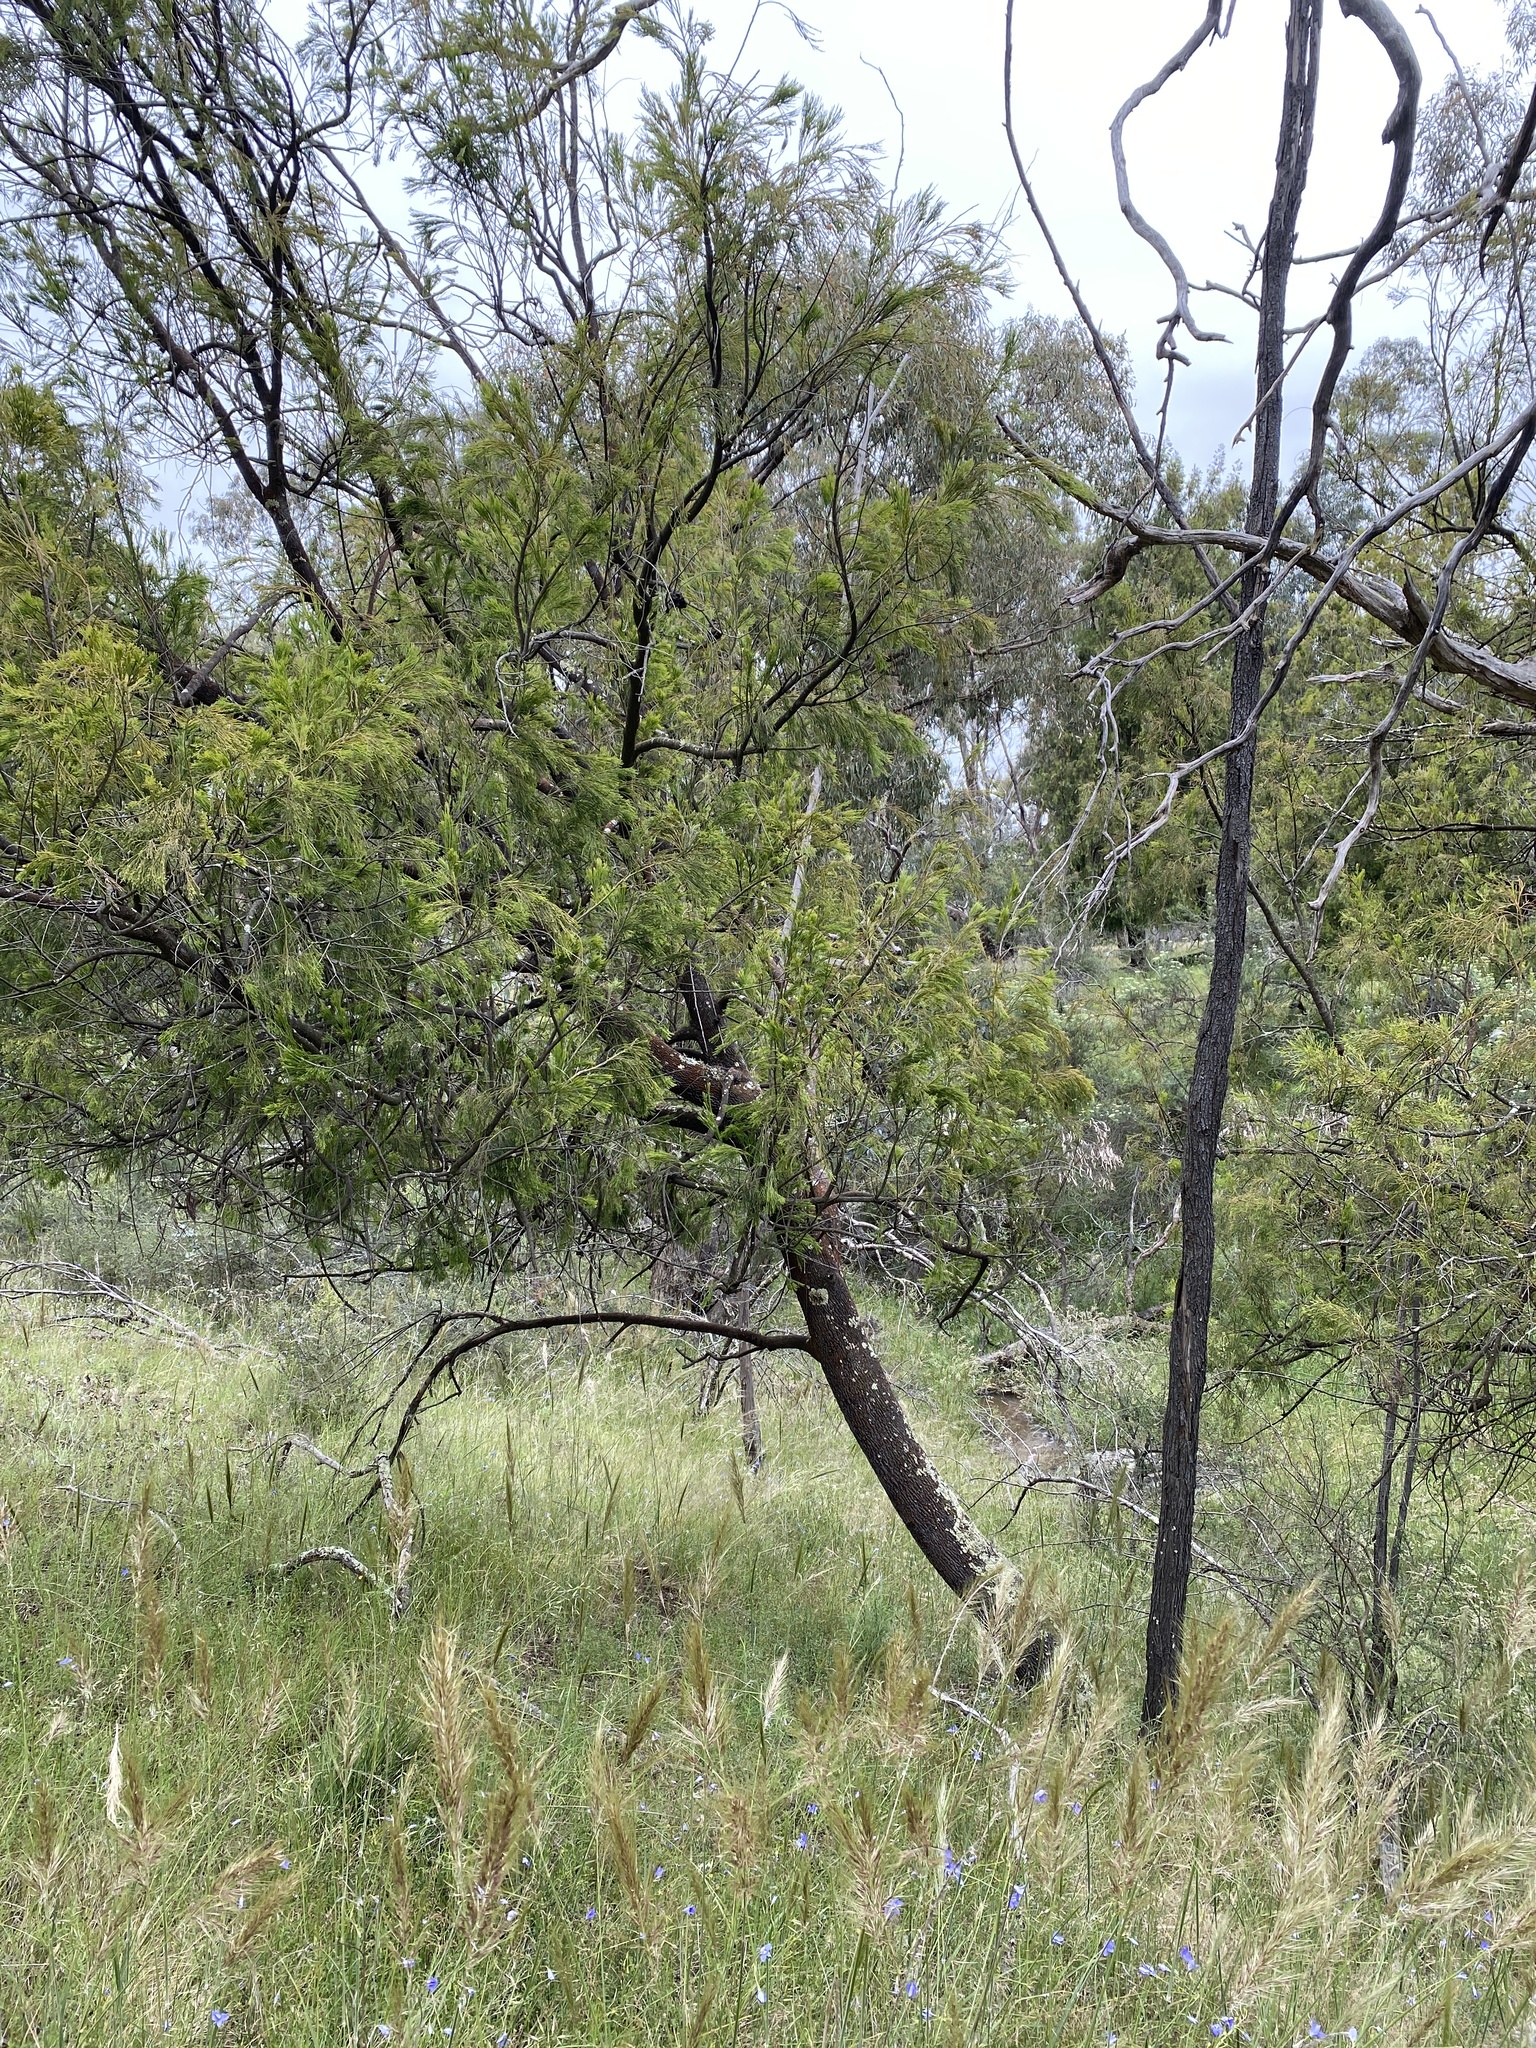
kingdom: Plantae
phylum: Tracheophyta
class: Magnoliopsida
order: Santalales
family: Santalaceae
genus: Exocarpos
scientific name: Exocarpos cupressiformis
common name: Cherry ballart
